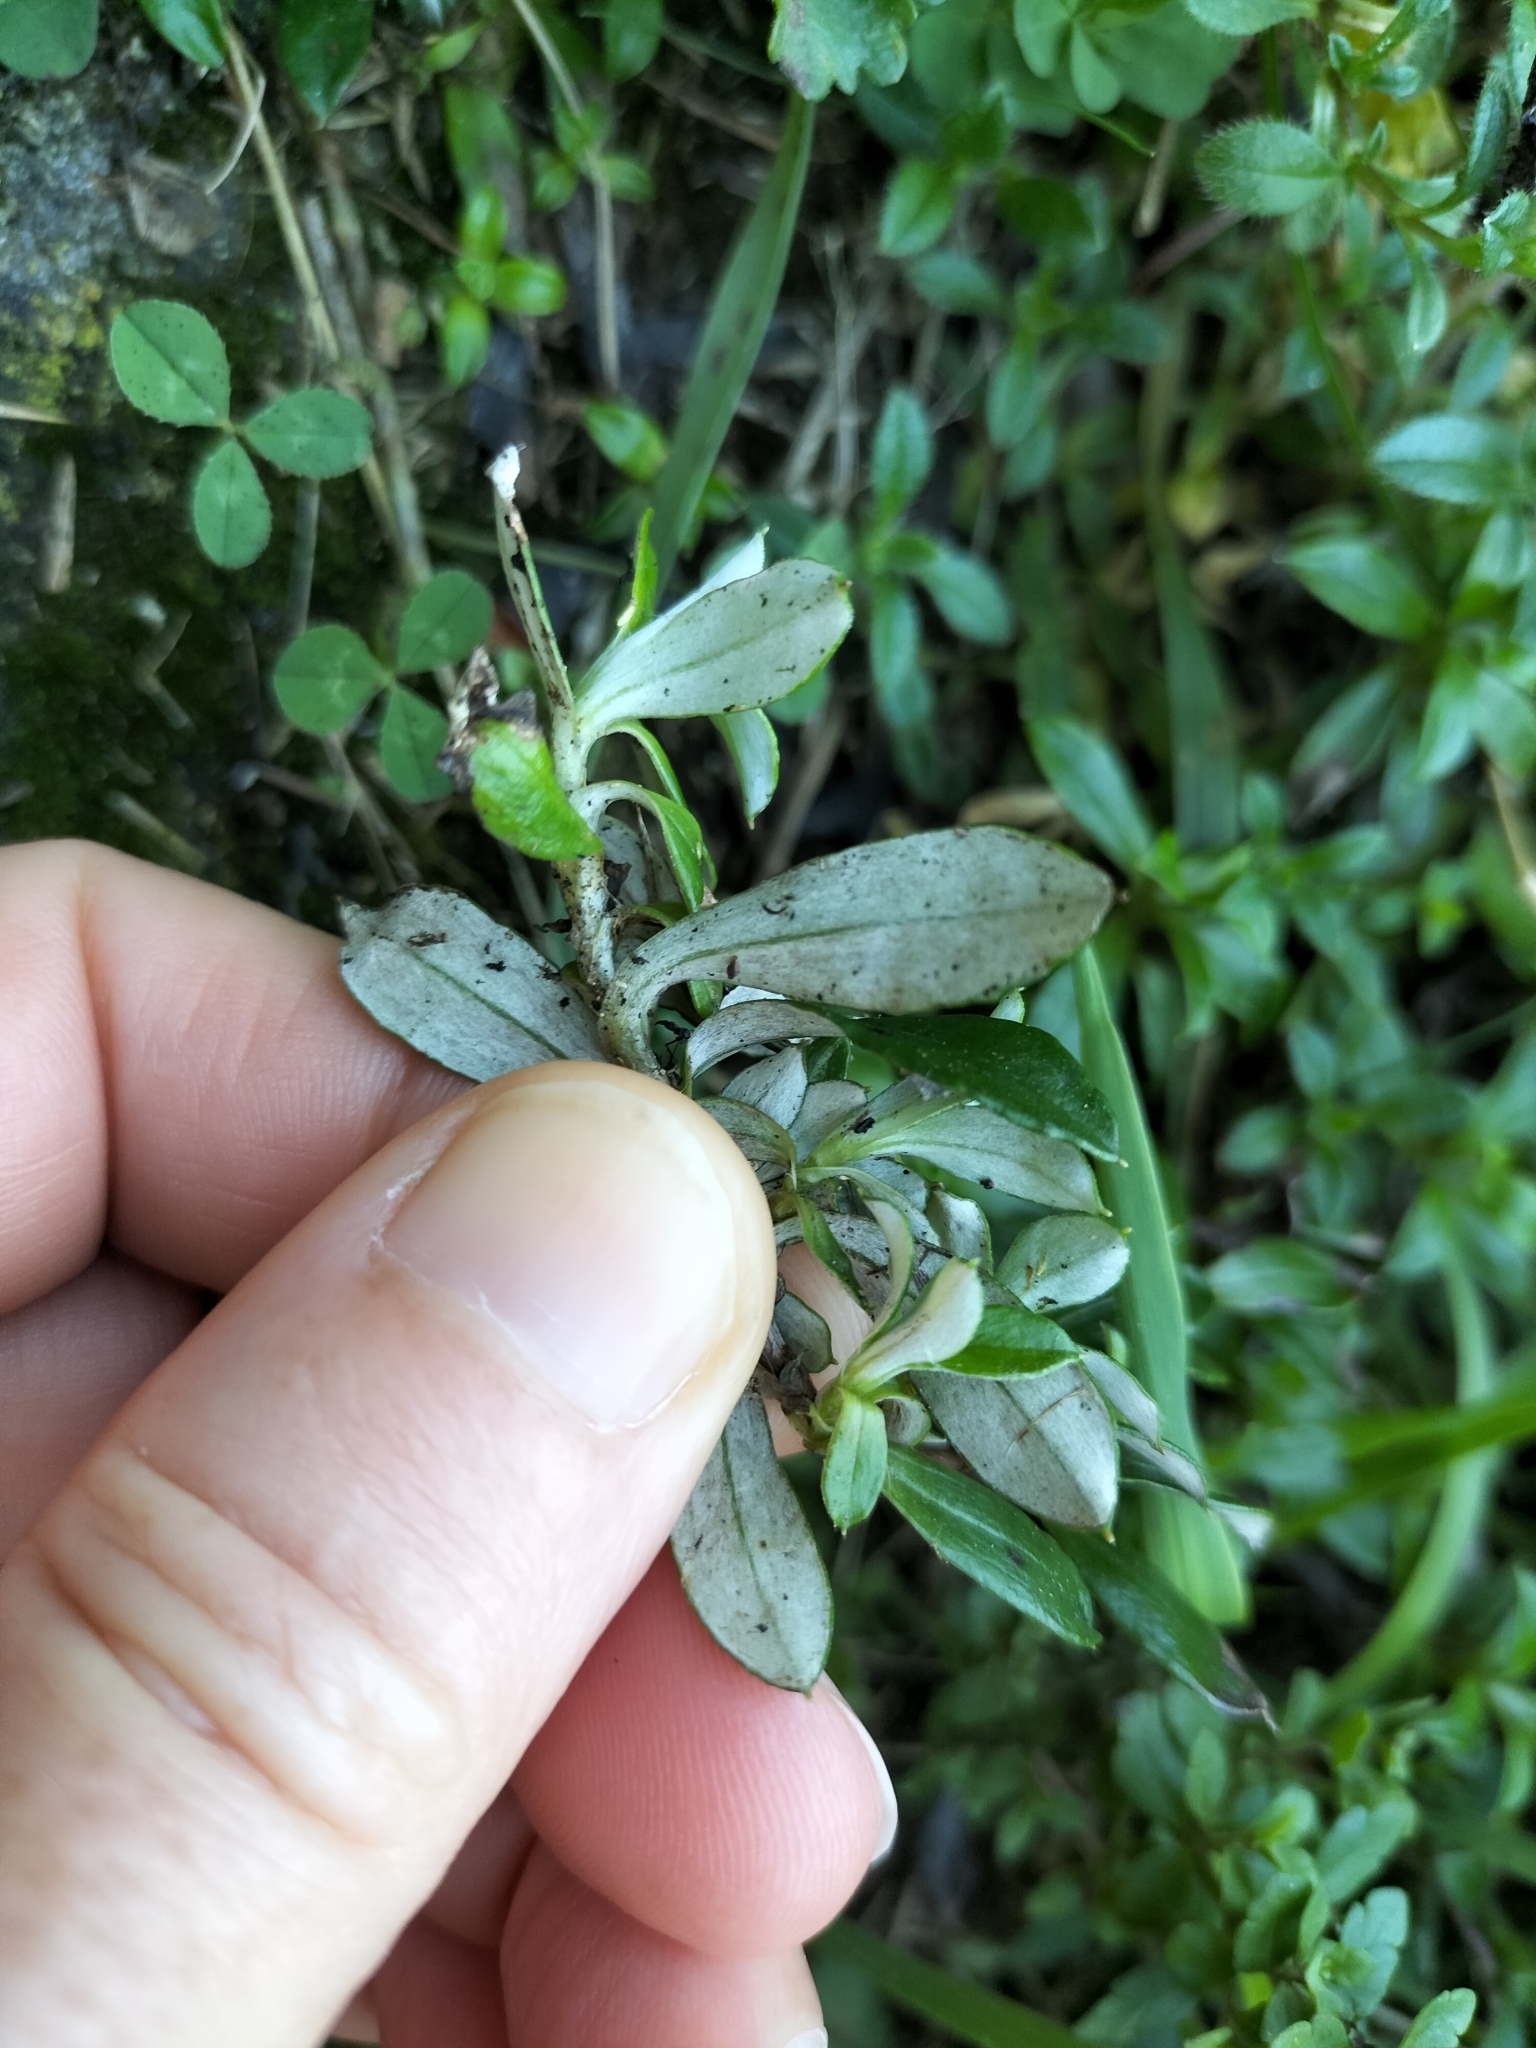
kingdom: Plantae
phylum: Tracheophyta
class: Magnoliopsida
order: Asterales
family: Asteraceae
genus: Anaphalioides
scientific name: Anaphalioides trinervis
